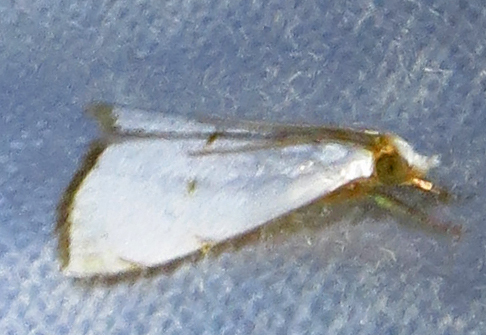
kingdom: Animalia
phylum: Arthropoda
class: Insecta
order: Lepidoptera
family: Crambidae
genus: Argyria
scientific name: Argyria pusillalis
